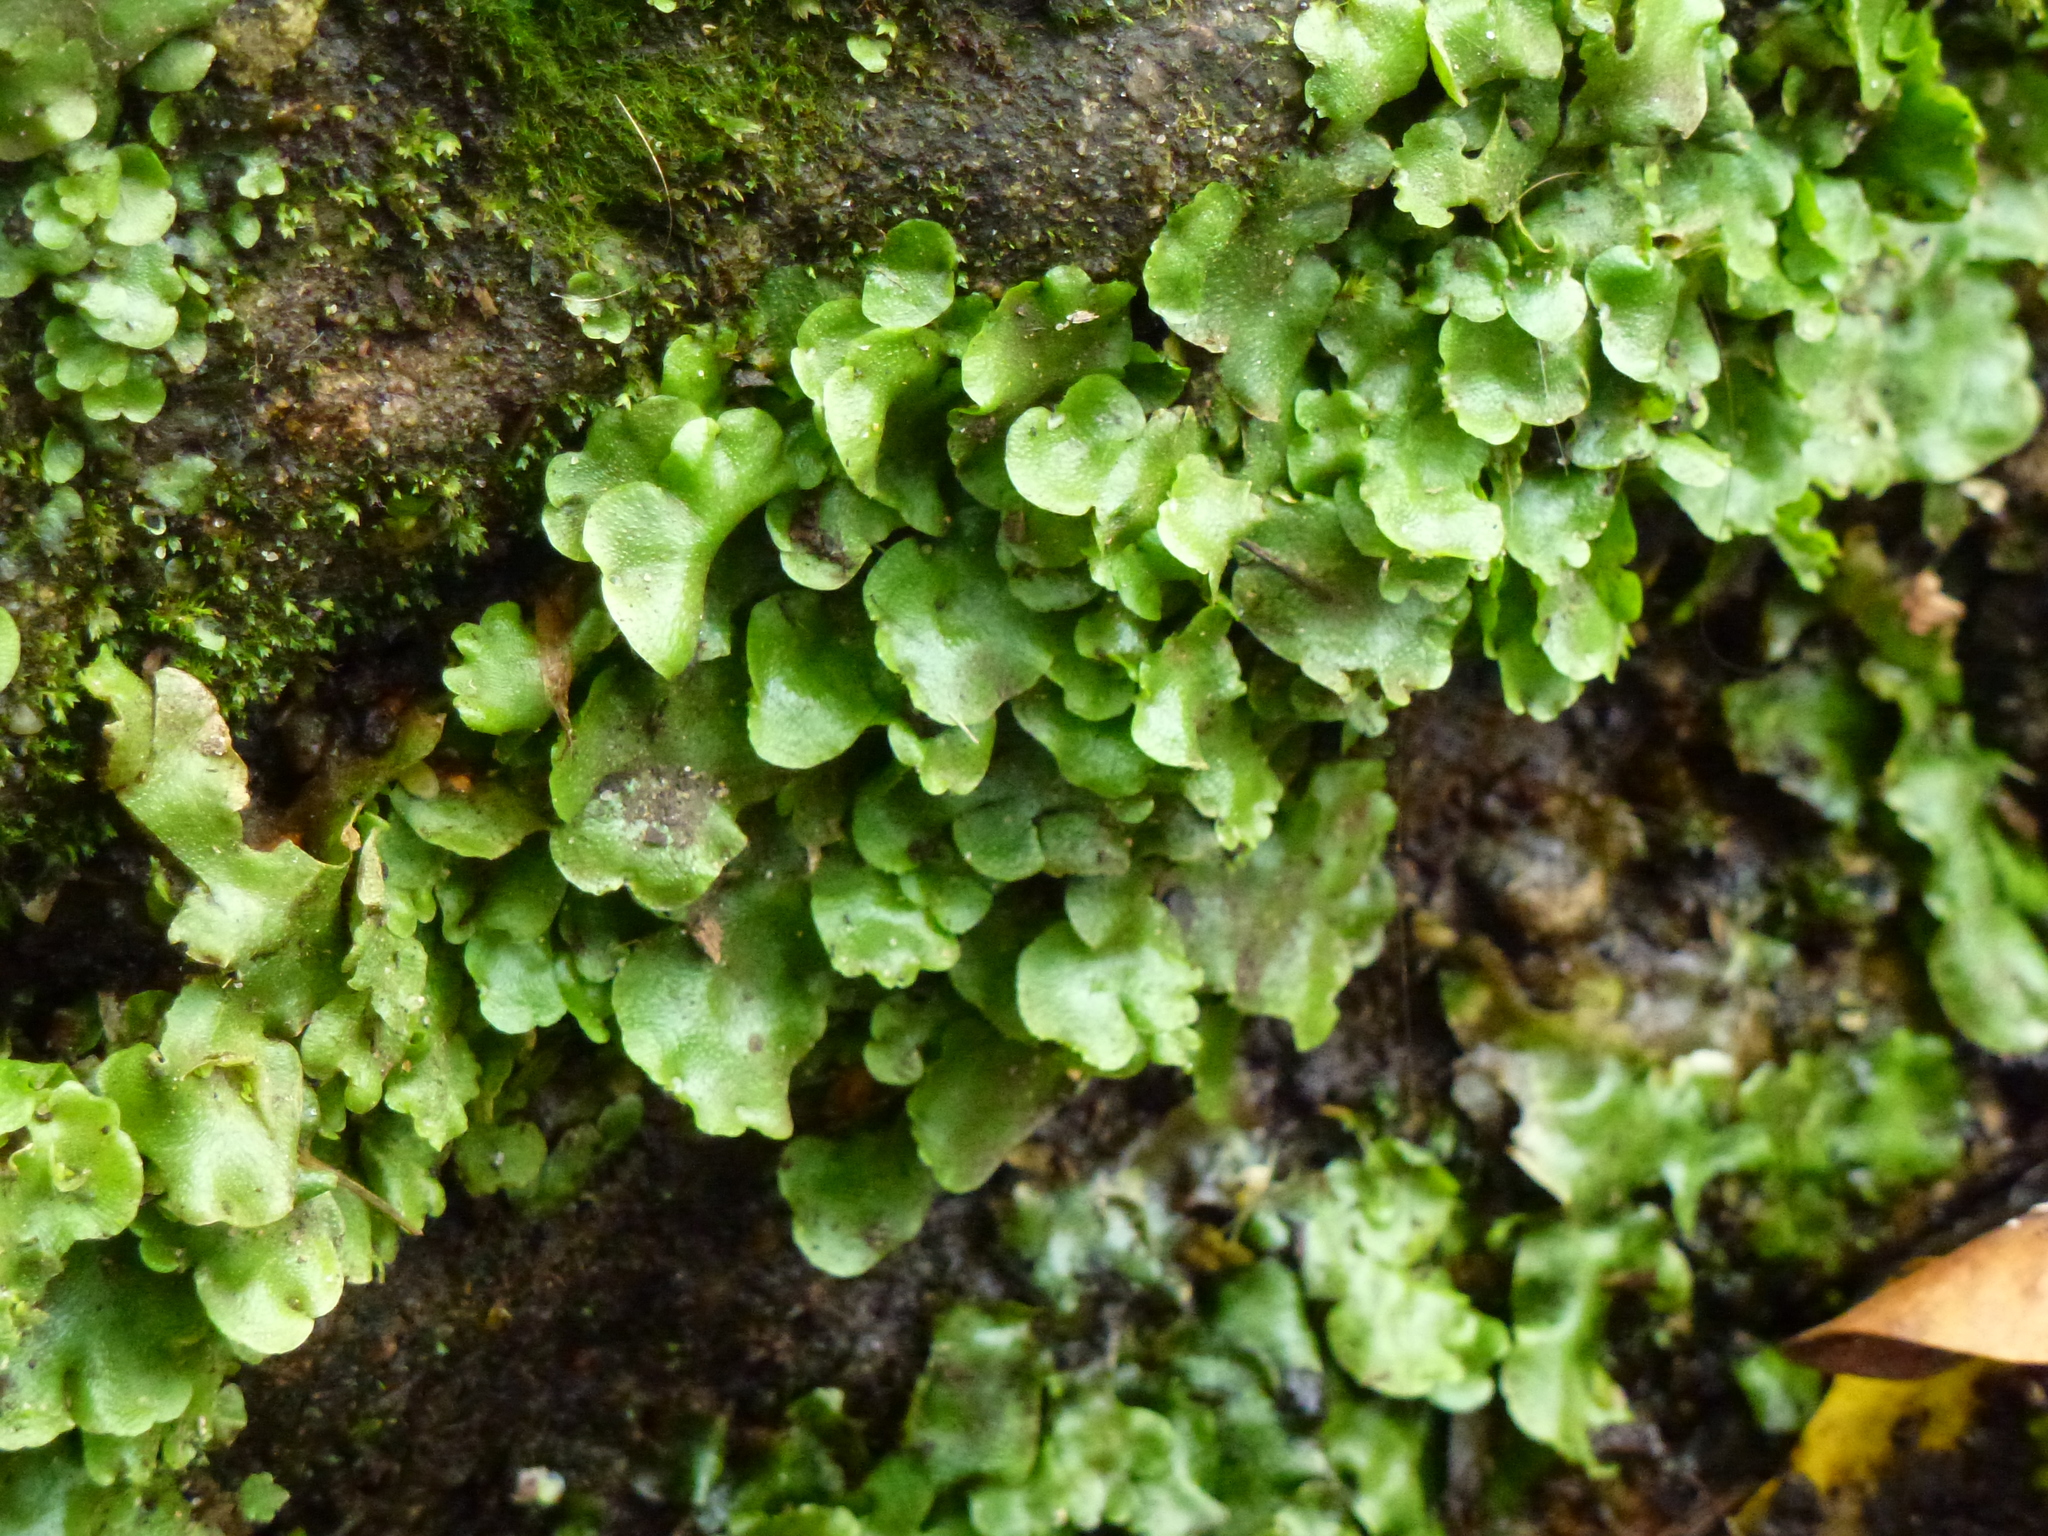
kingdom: Plantae
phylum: Marchantiophyta
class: Jungermanniopsida
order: Pelliales
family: Pelliaceae
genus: Pellia
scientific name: Pellia epiphylla
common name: Common pellia
